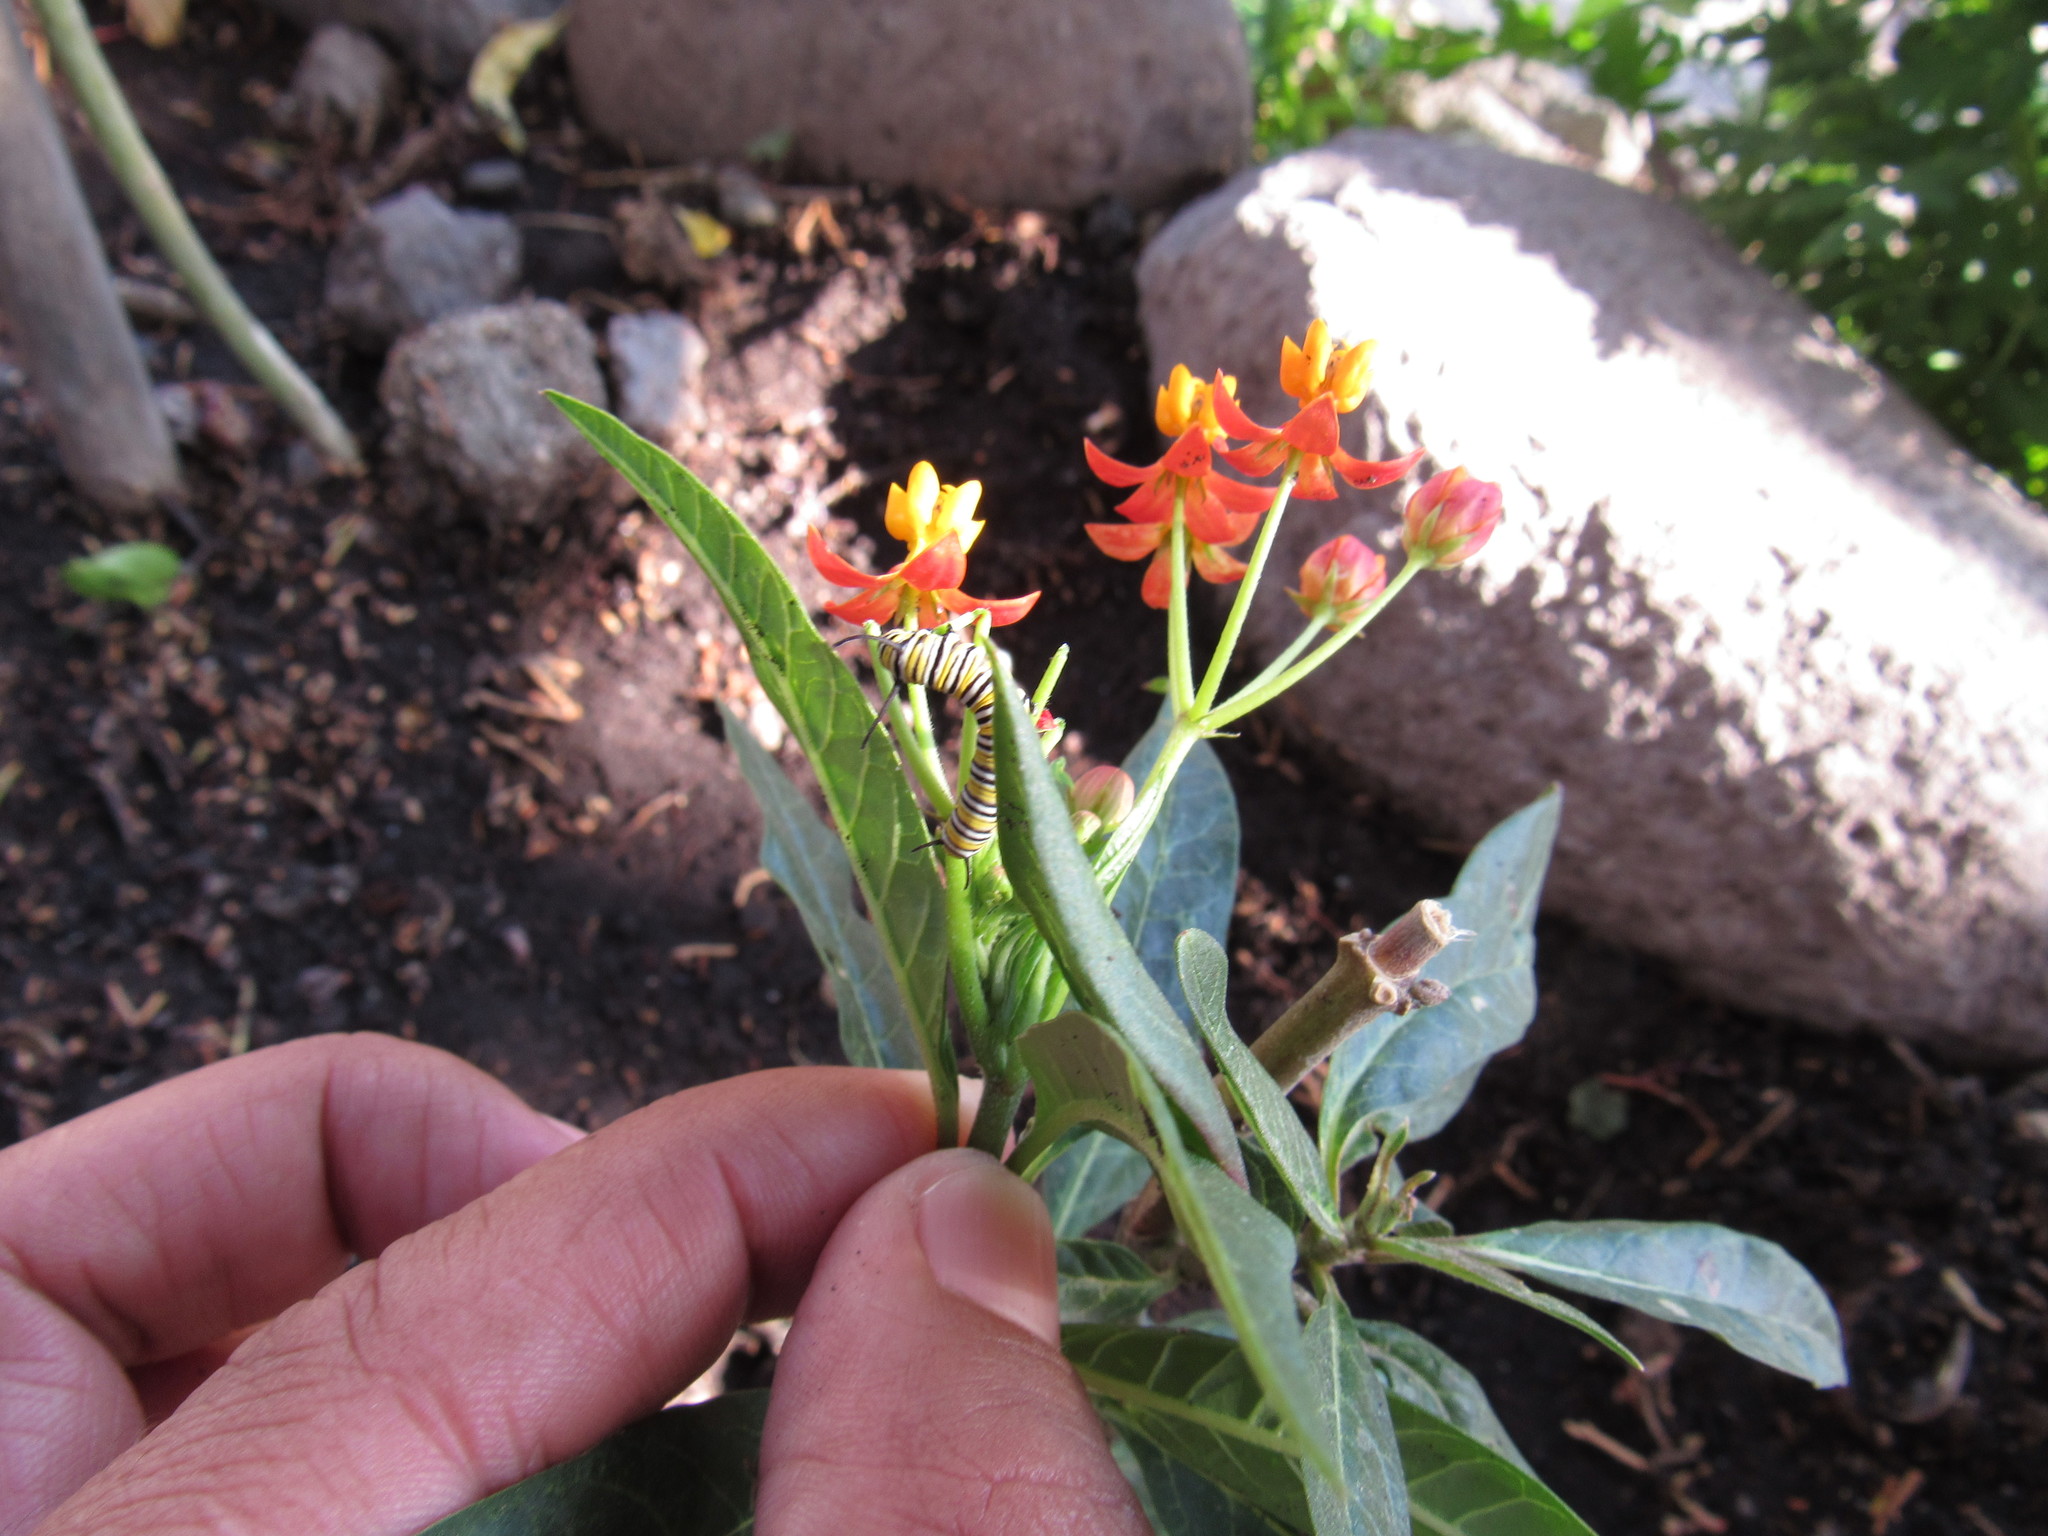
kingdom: Animalia
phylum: Arthropoda
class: Insecta
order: Lepidoptera
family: Nymphalidae
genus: Danaus
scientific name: Danaus plexippus
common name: Monarch
